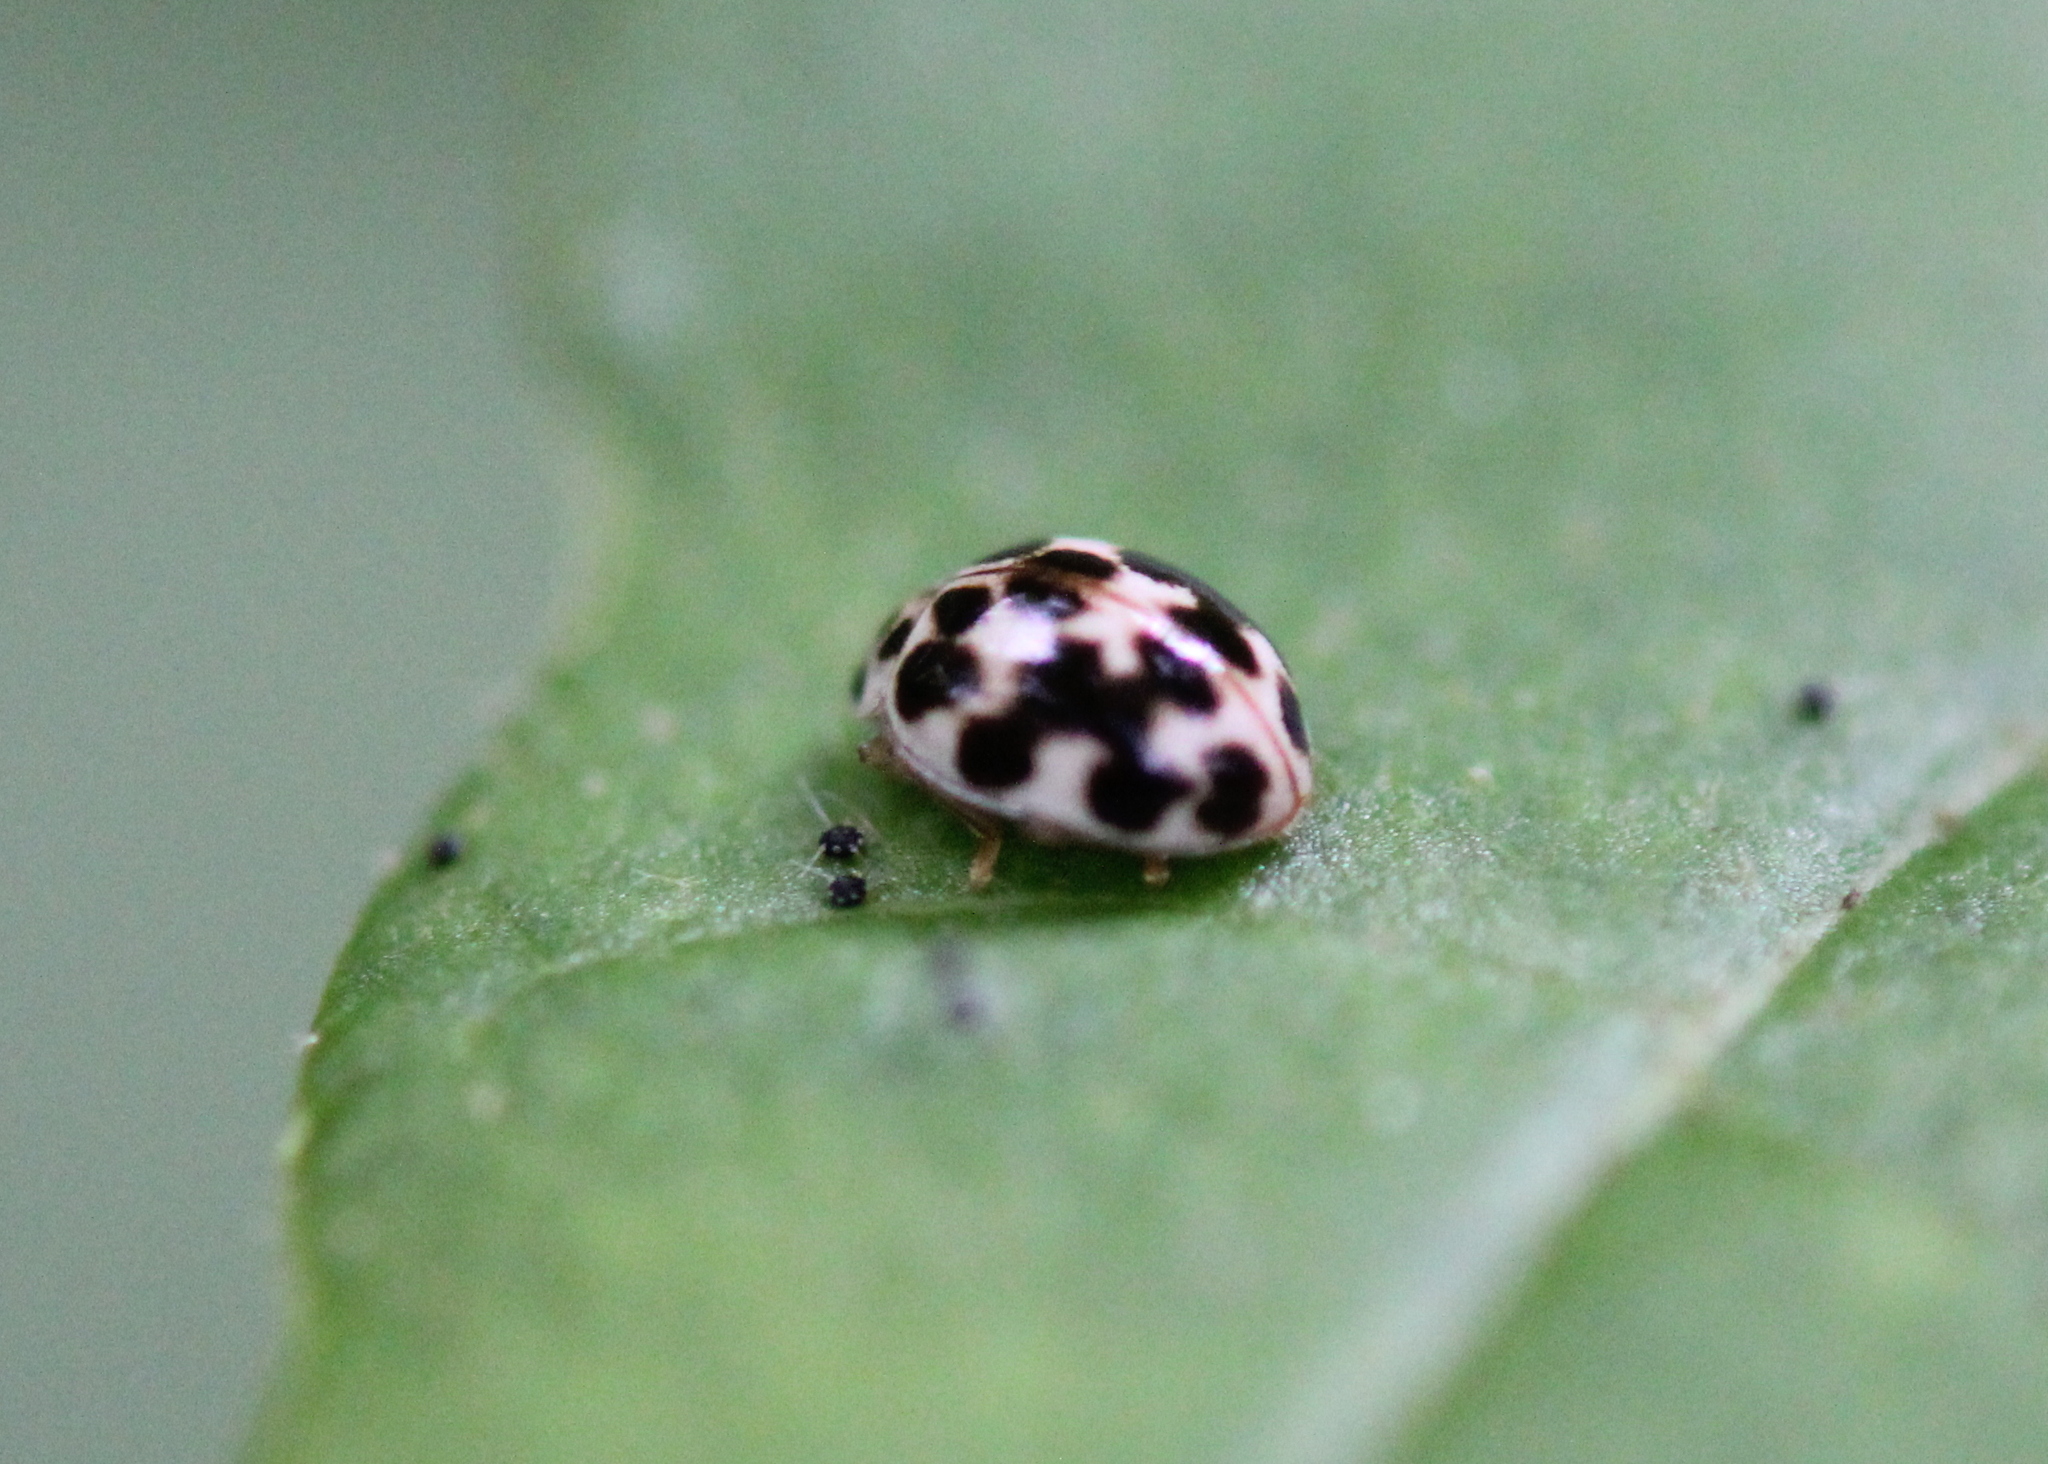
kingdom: Animalia
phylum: Arthropoda
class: Insecta
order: Coleoptera
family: Coccinellidae
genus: Psyllobora
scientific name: Psyllobora vigintimaculata
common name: Ladybird beetle
